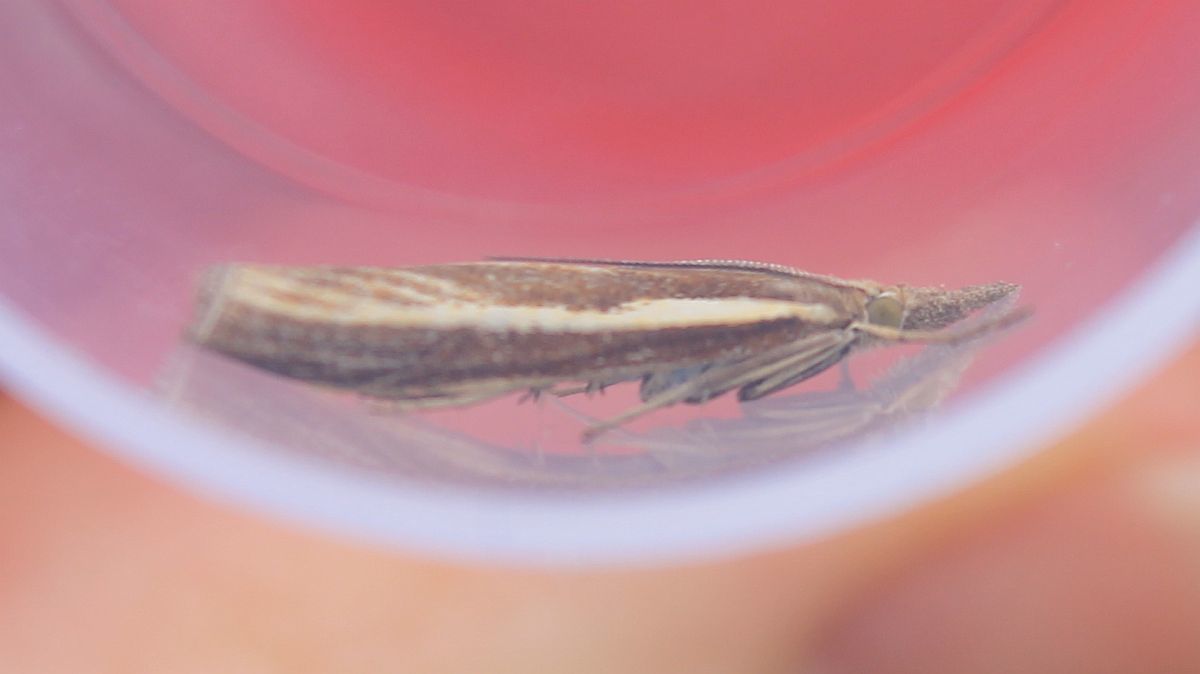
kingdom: Animalia
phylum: Arthropoda
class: Insecta
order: Lepidoptera
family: Crambidae
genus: Agriphila
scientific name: Agriphila tristellus
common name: Common grass-veneer
